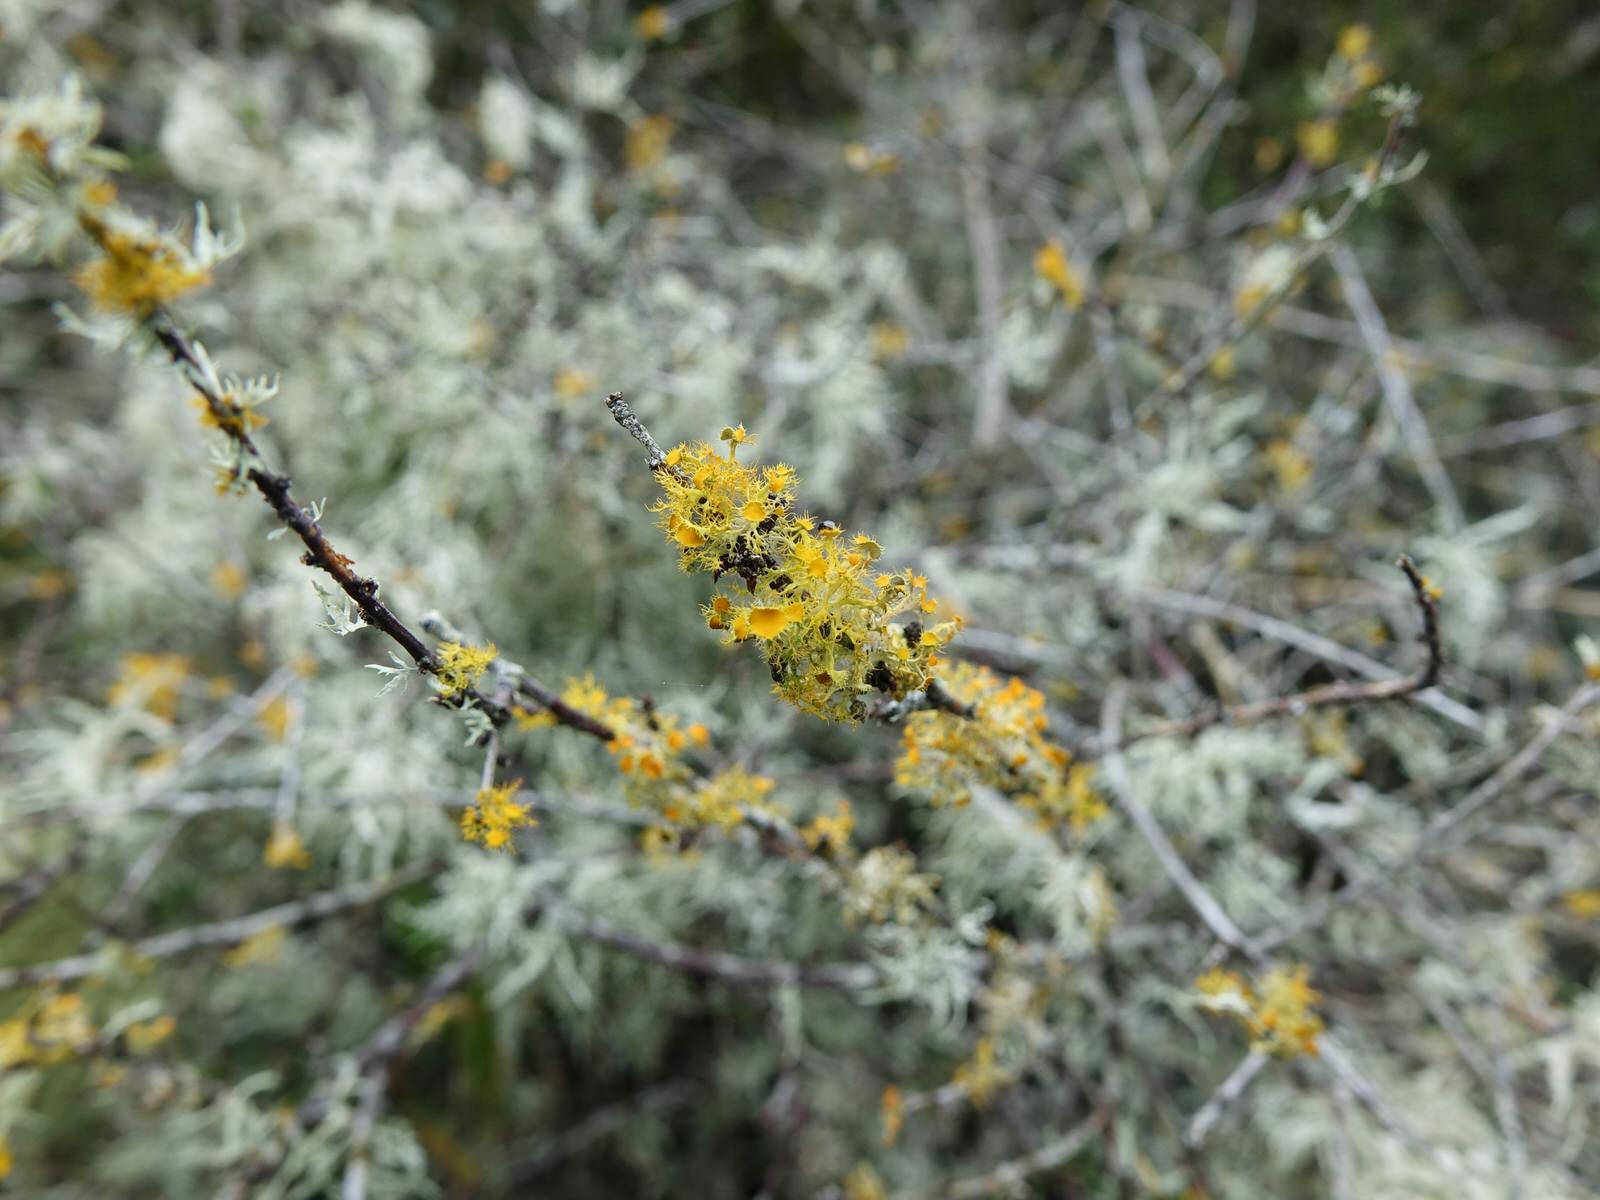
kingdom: Fungi
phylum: Ascomycota
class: Lecanoromycetes
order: Teloschistales
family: Teloschistaceae
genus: Niorma
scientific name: Niorma chrysophthalma
